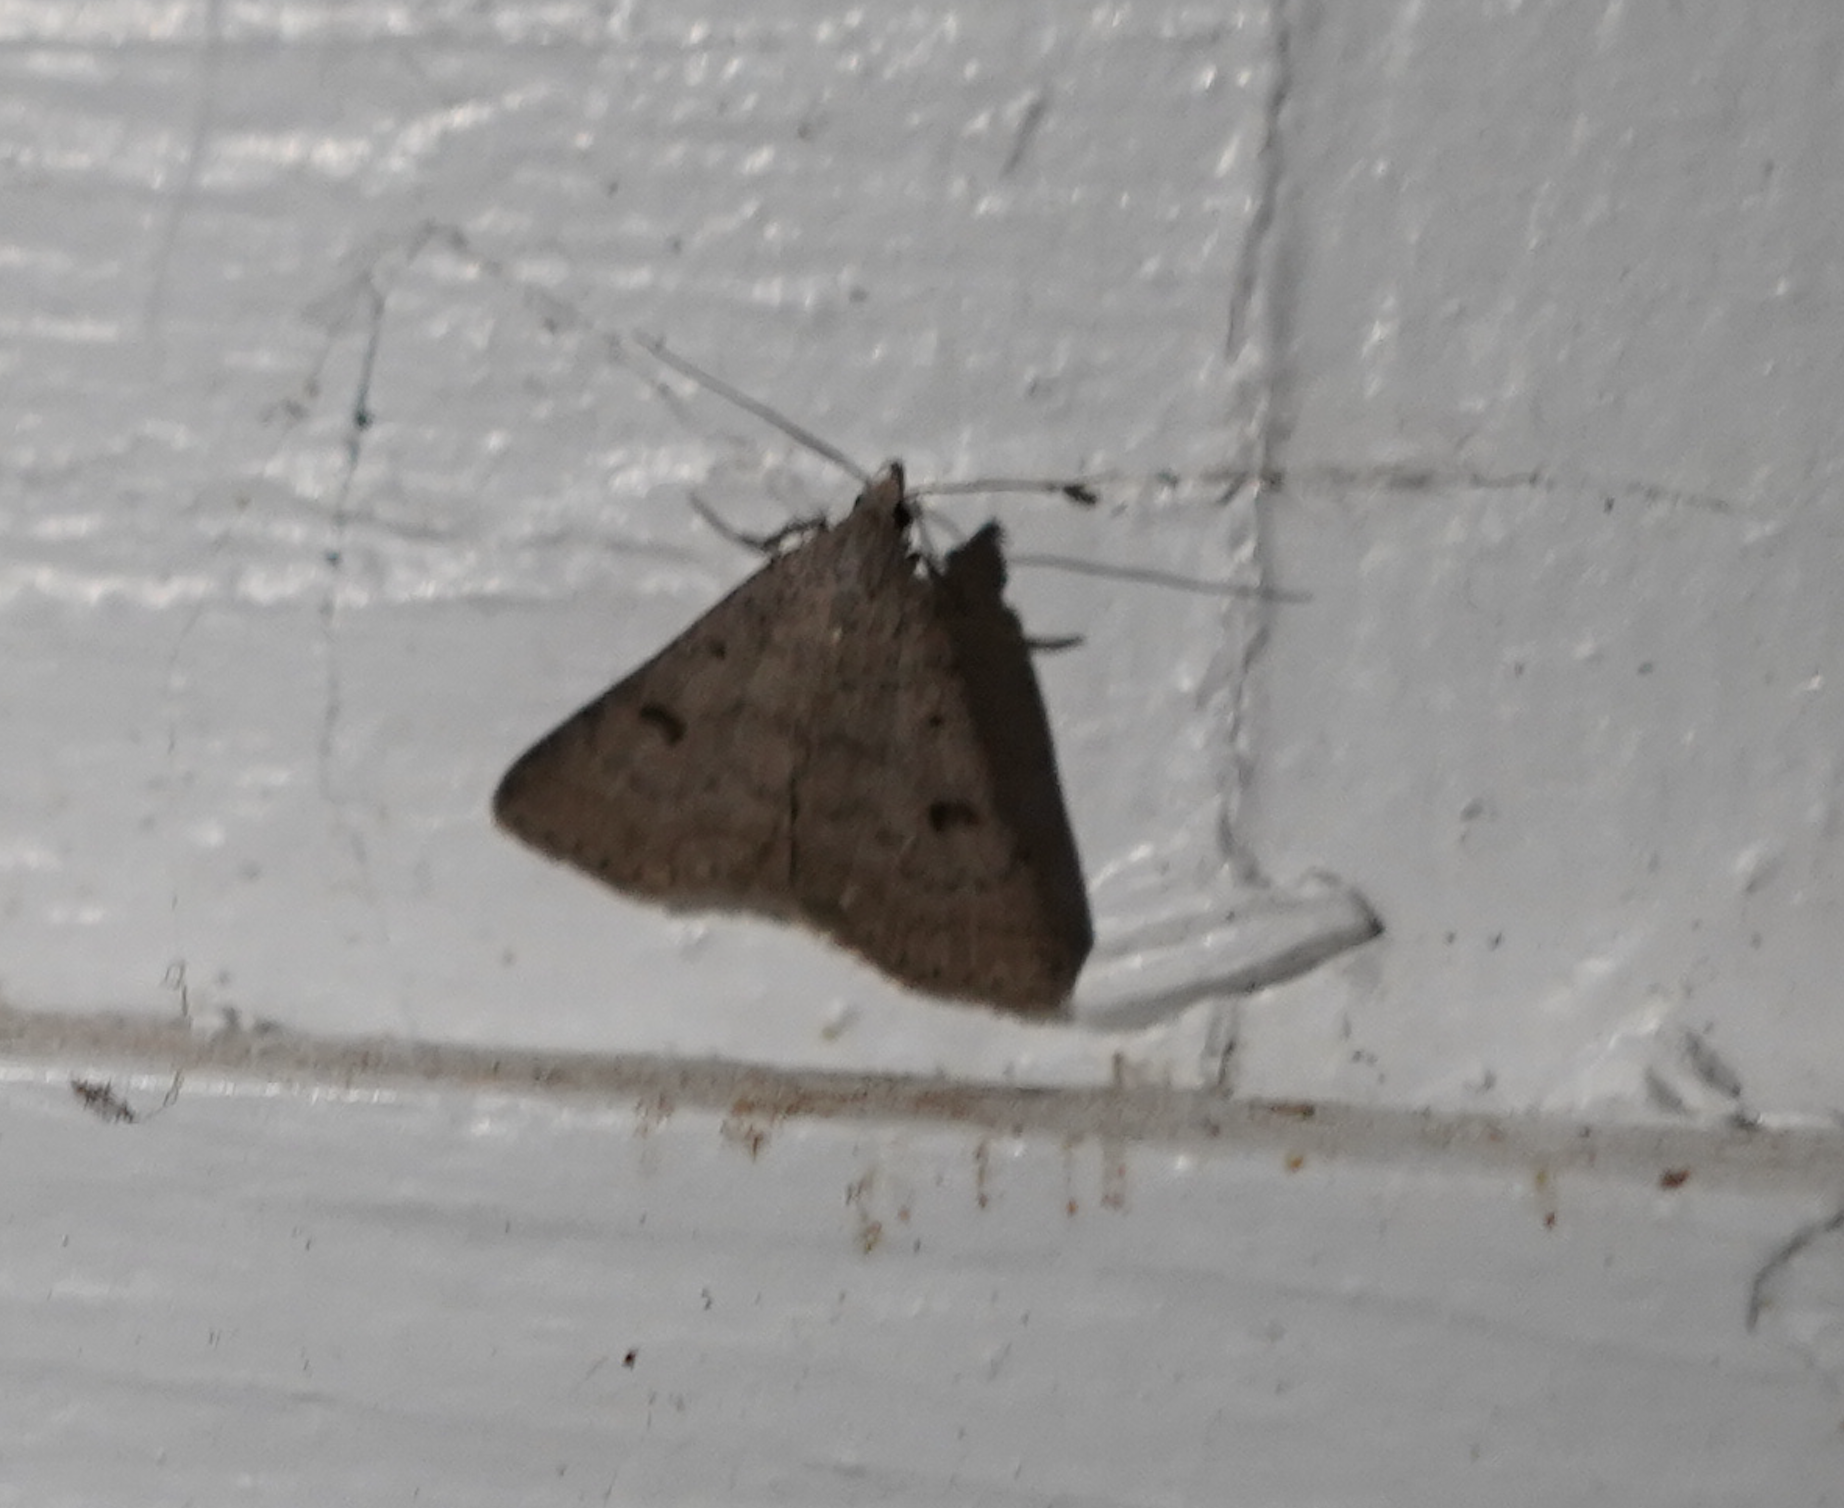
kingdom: Animalia
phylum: Arthropoda
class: Insecta
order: Lepidoptera
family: Erebidae
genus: Bleptina
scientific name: Bleptina caradrinalis
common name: Bent-winged owlet
